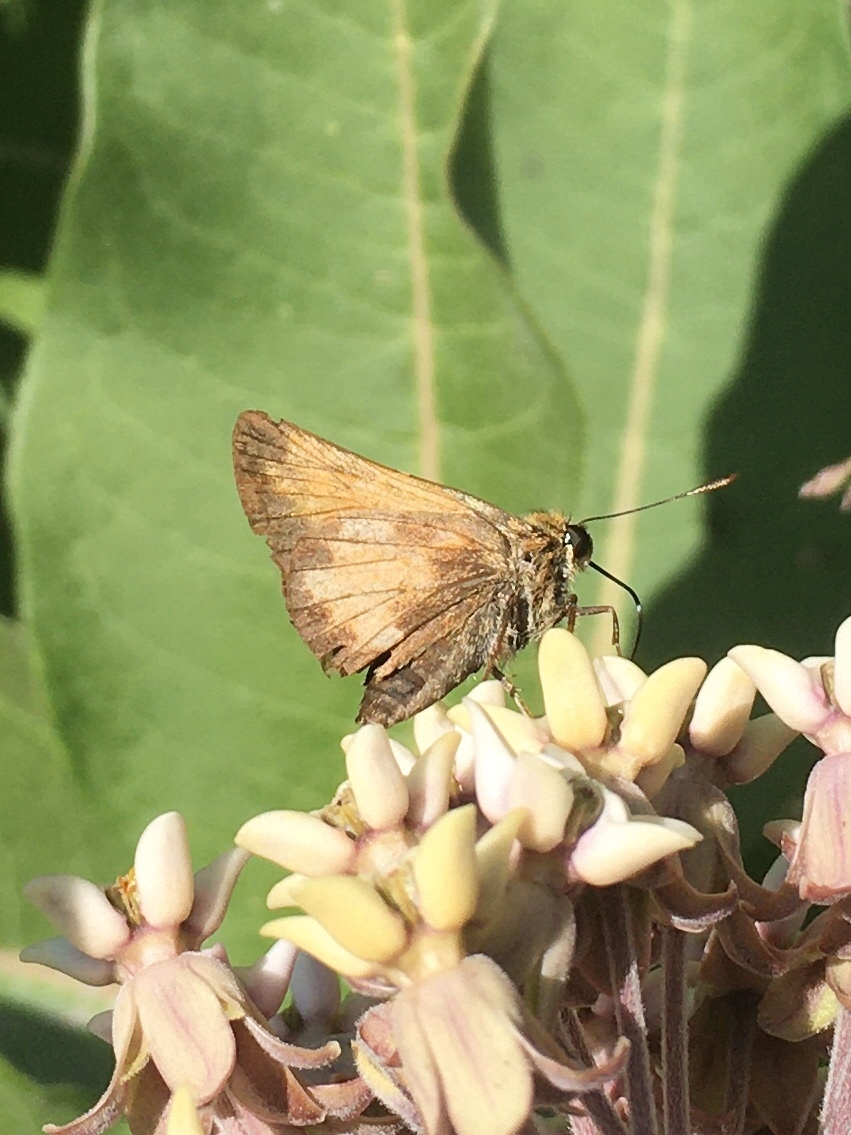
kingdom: Animalia
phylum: Arthropoda
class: Insecta
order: Lepidoptera
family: Hesperiidae
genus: Lon
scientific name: Lon hobomok
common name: Hobomok skipper
